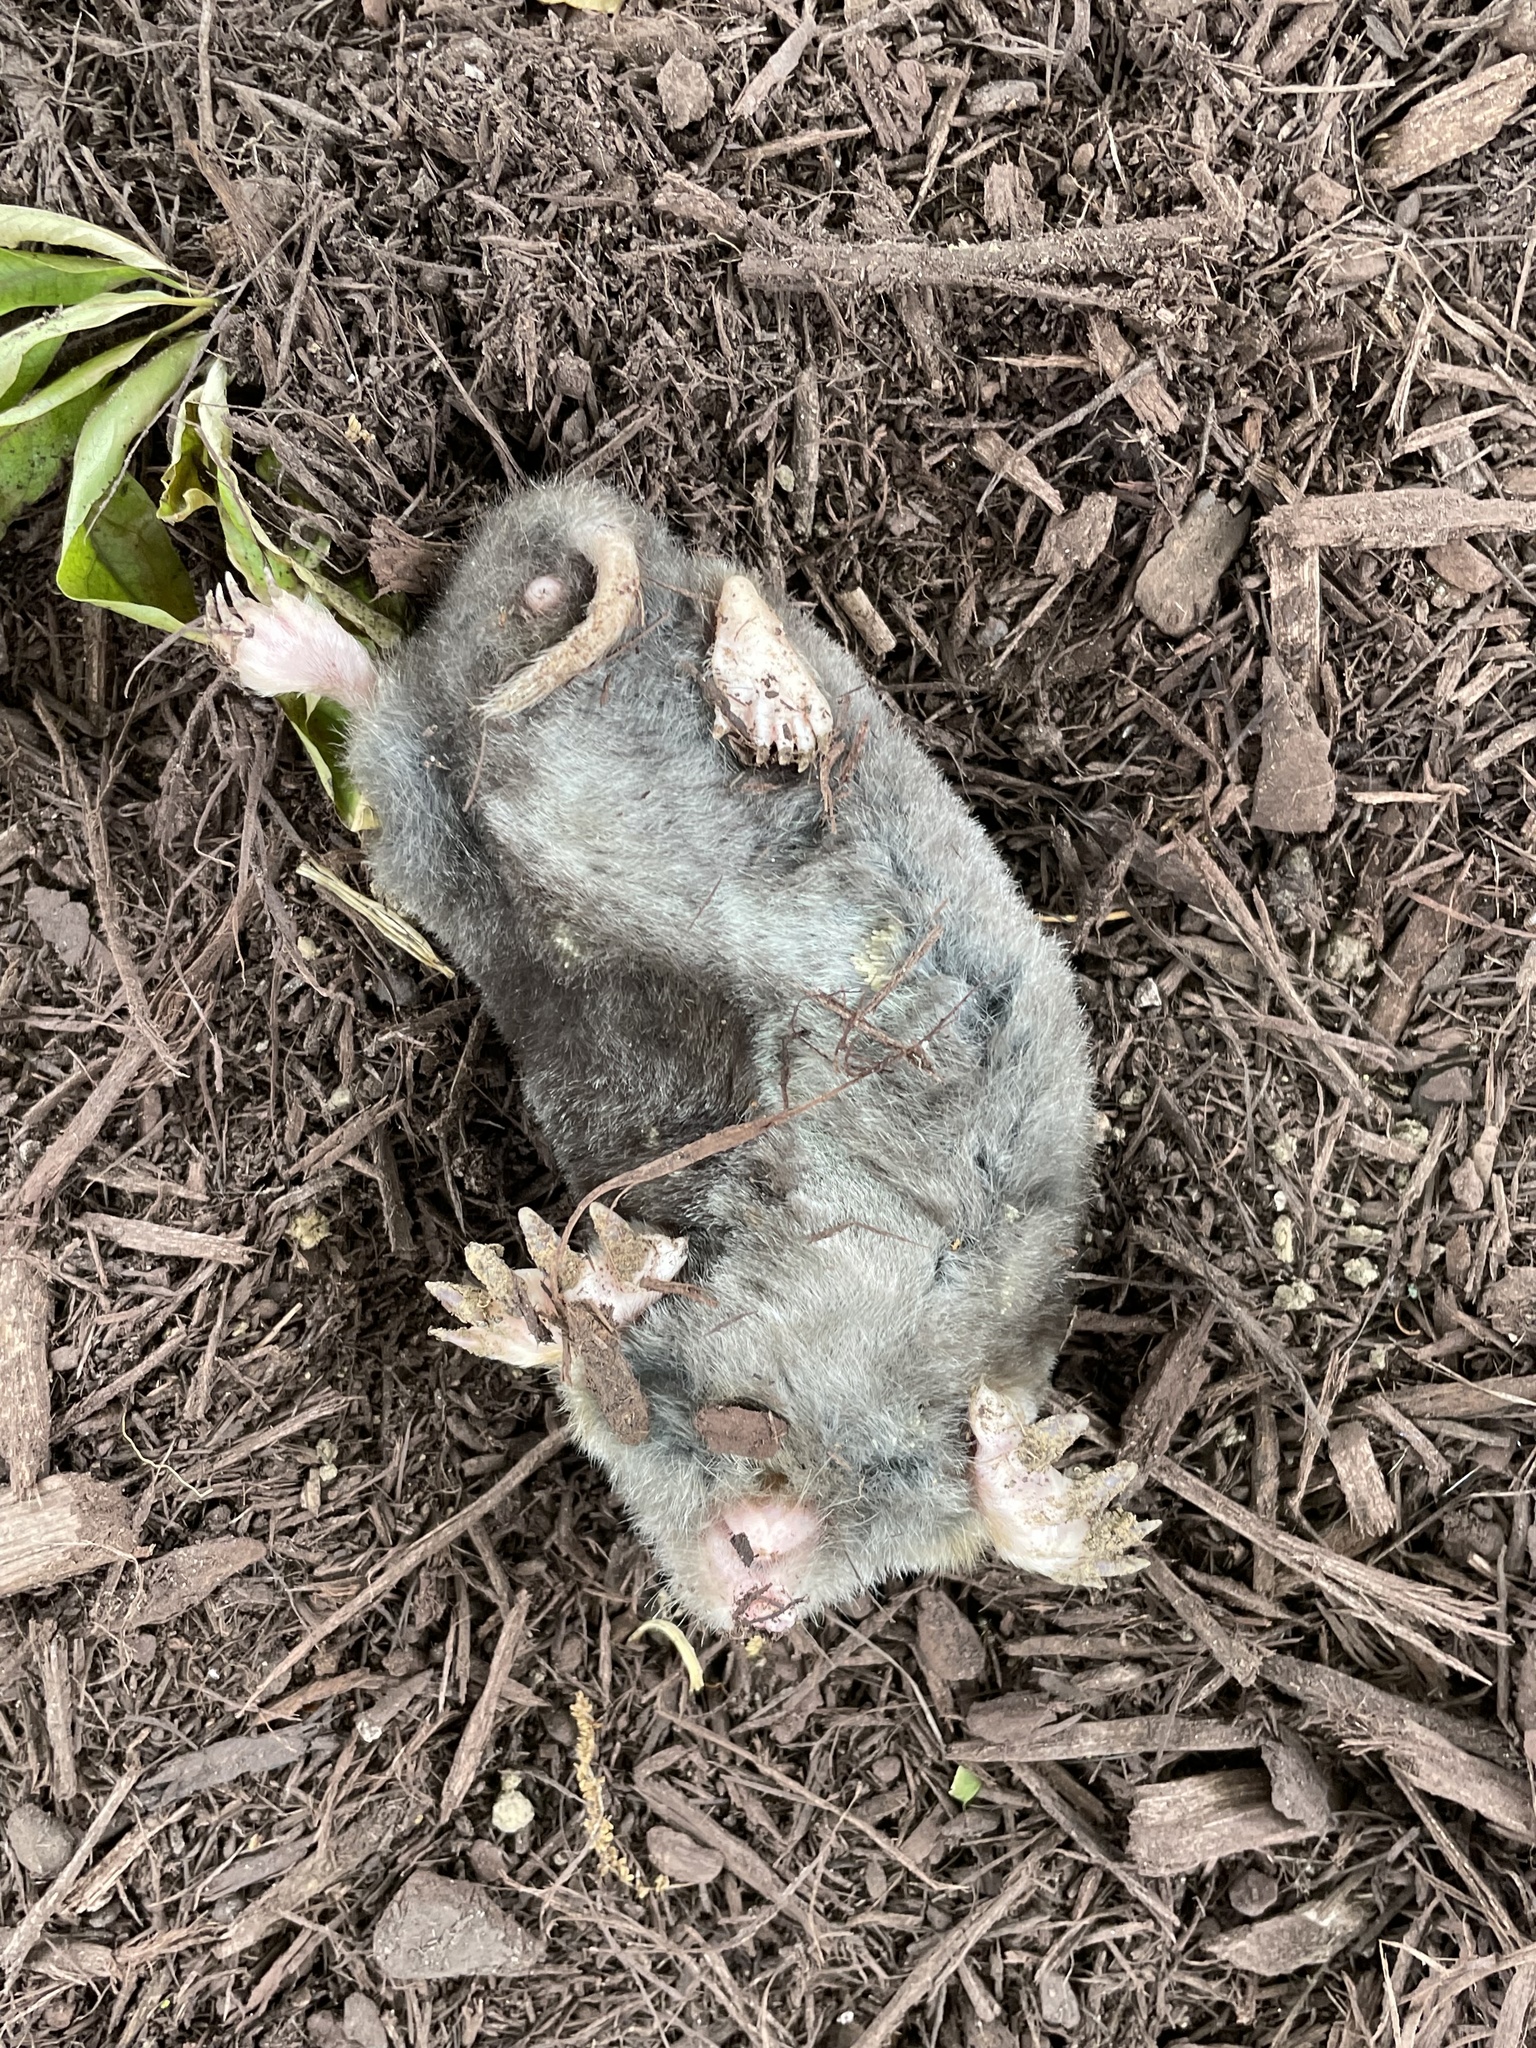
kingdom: Animalia
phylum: Chordata
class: Mammalia
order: Soricomorpha
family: Talpidae
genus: Scalopus
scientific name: Scalopus aquaticus
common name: Eastern mole
